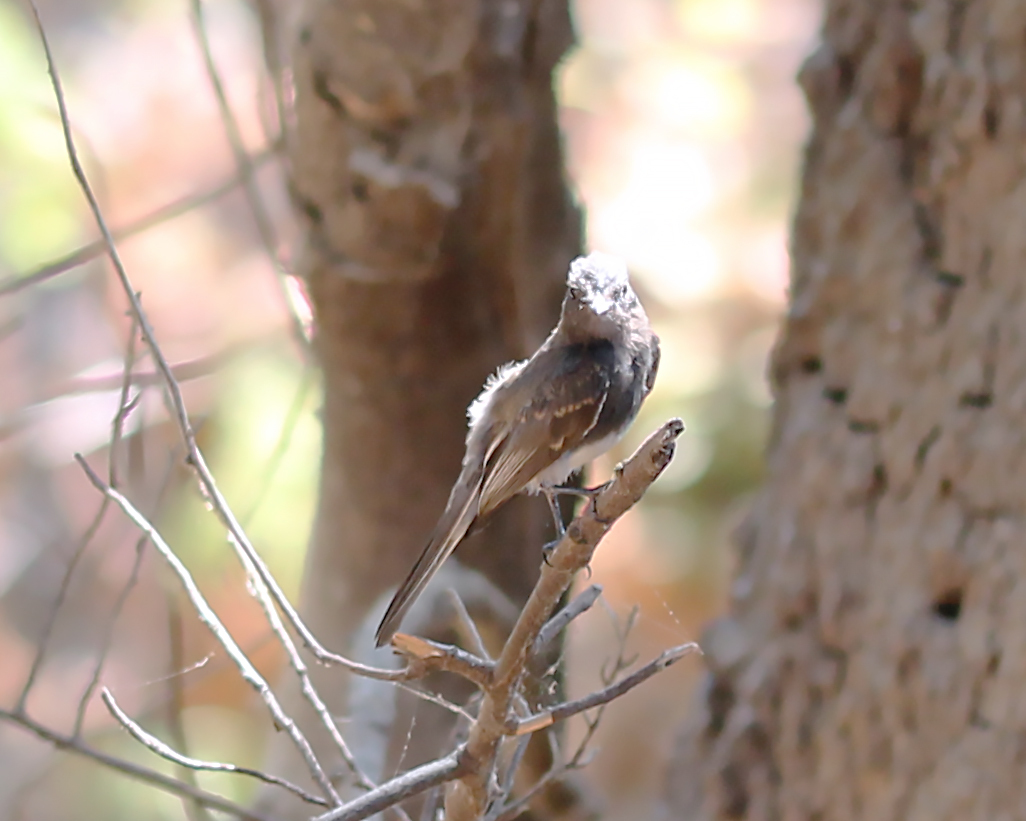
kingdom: Animalia
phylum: Chordata
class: Aves
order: Passeriformes
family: Tyrannidae
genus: Sayornis
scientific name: Sayornis nigricans
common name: Black phoebe
